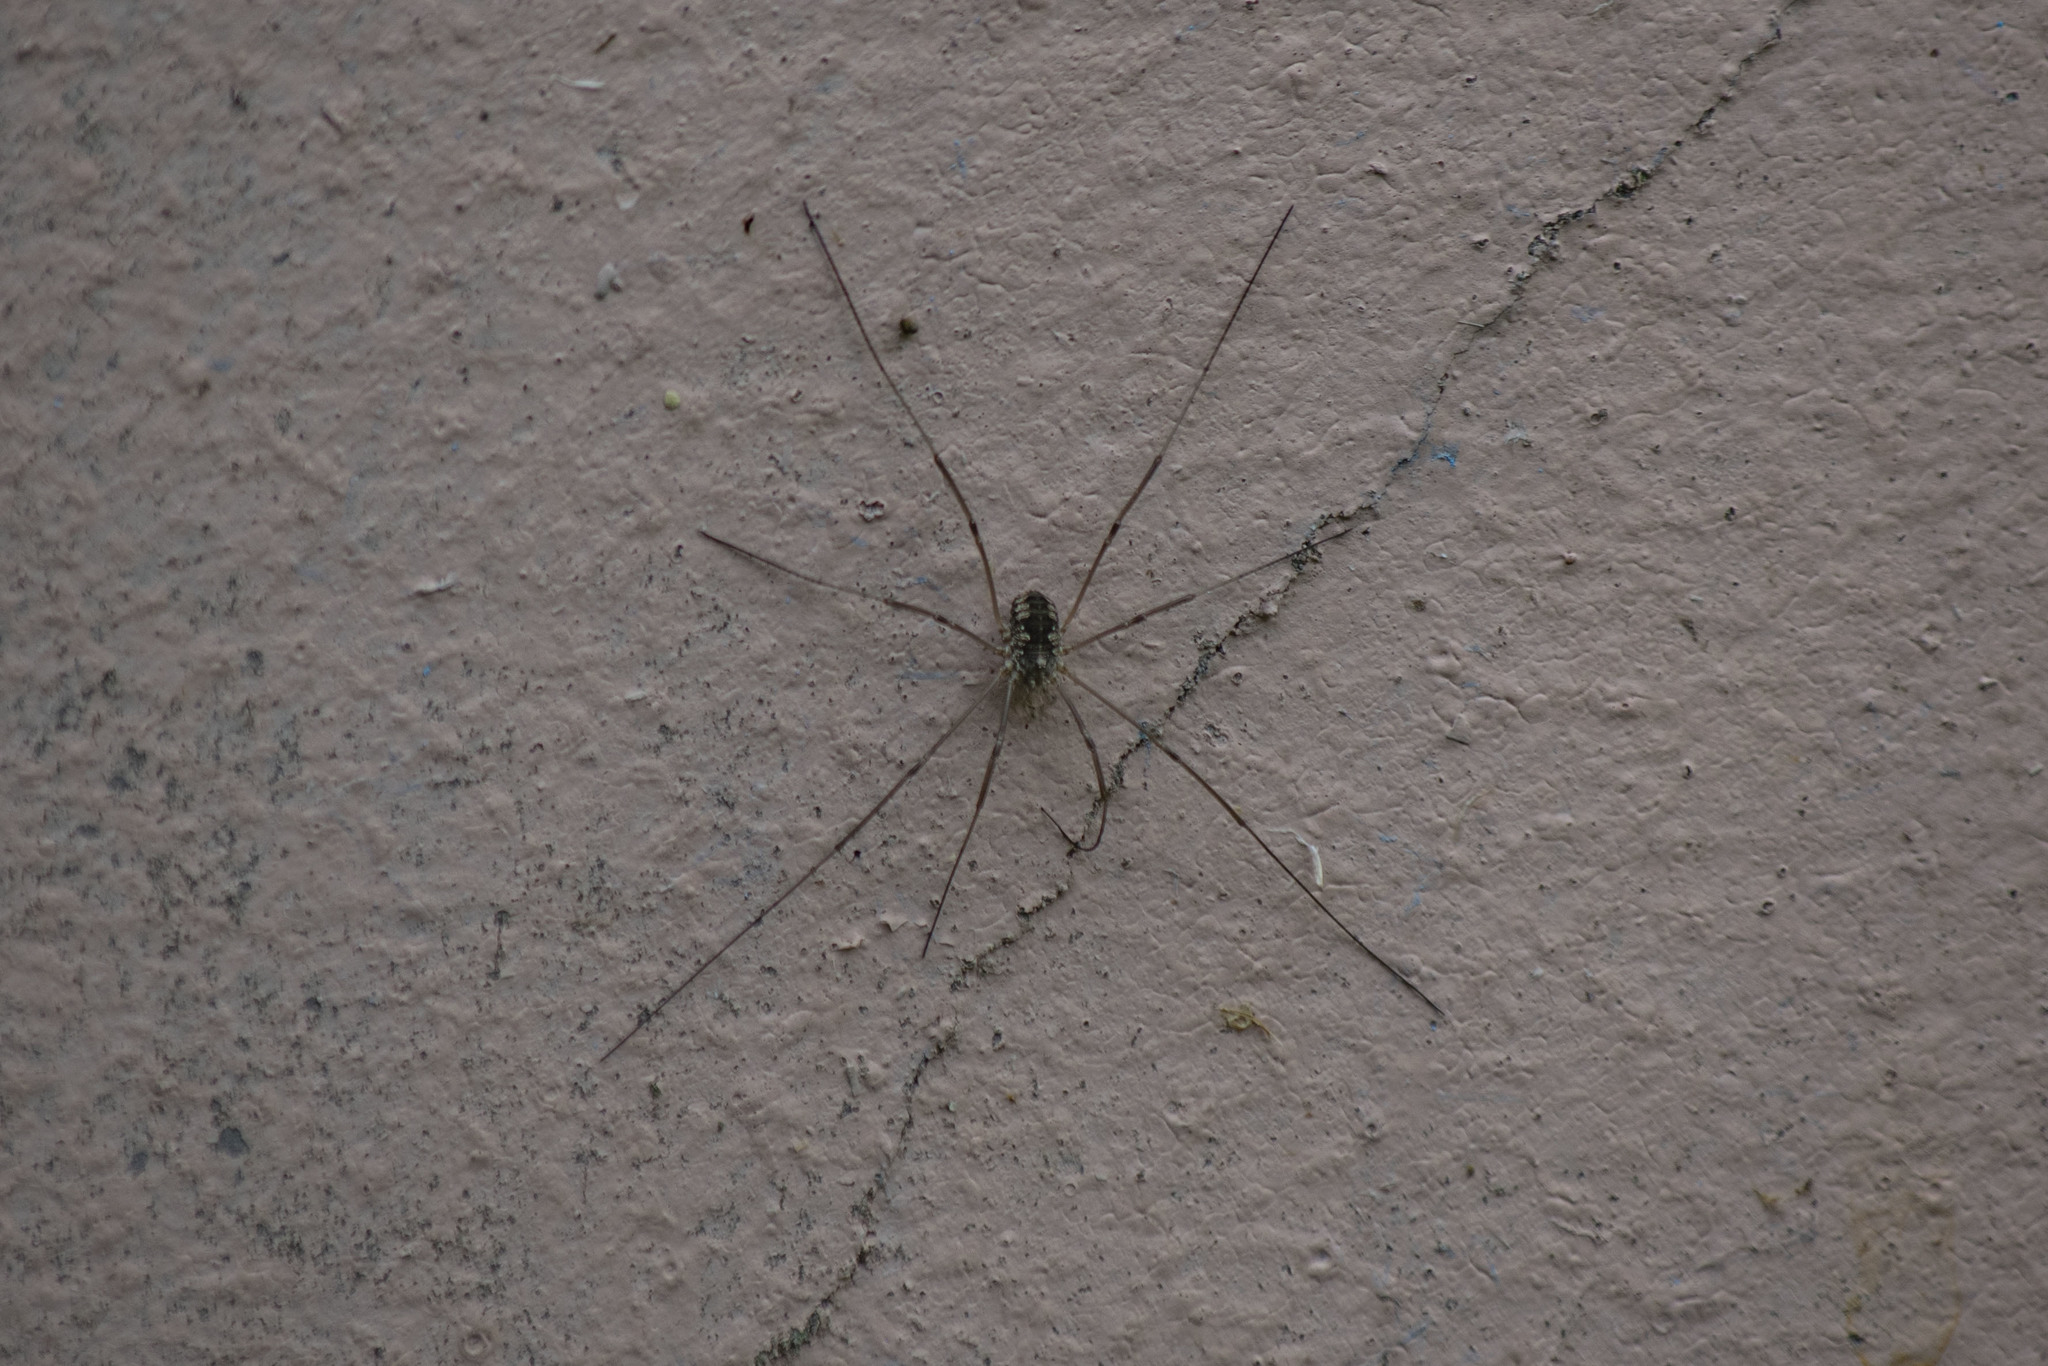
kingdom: Animalia
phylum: Arthropoda
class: Arachnida
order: Opiliones
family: Phalangiidae
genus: Phalangium
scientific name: Phalangium opilio
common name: Daddy longleg
